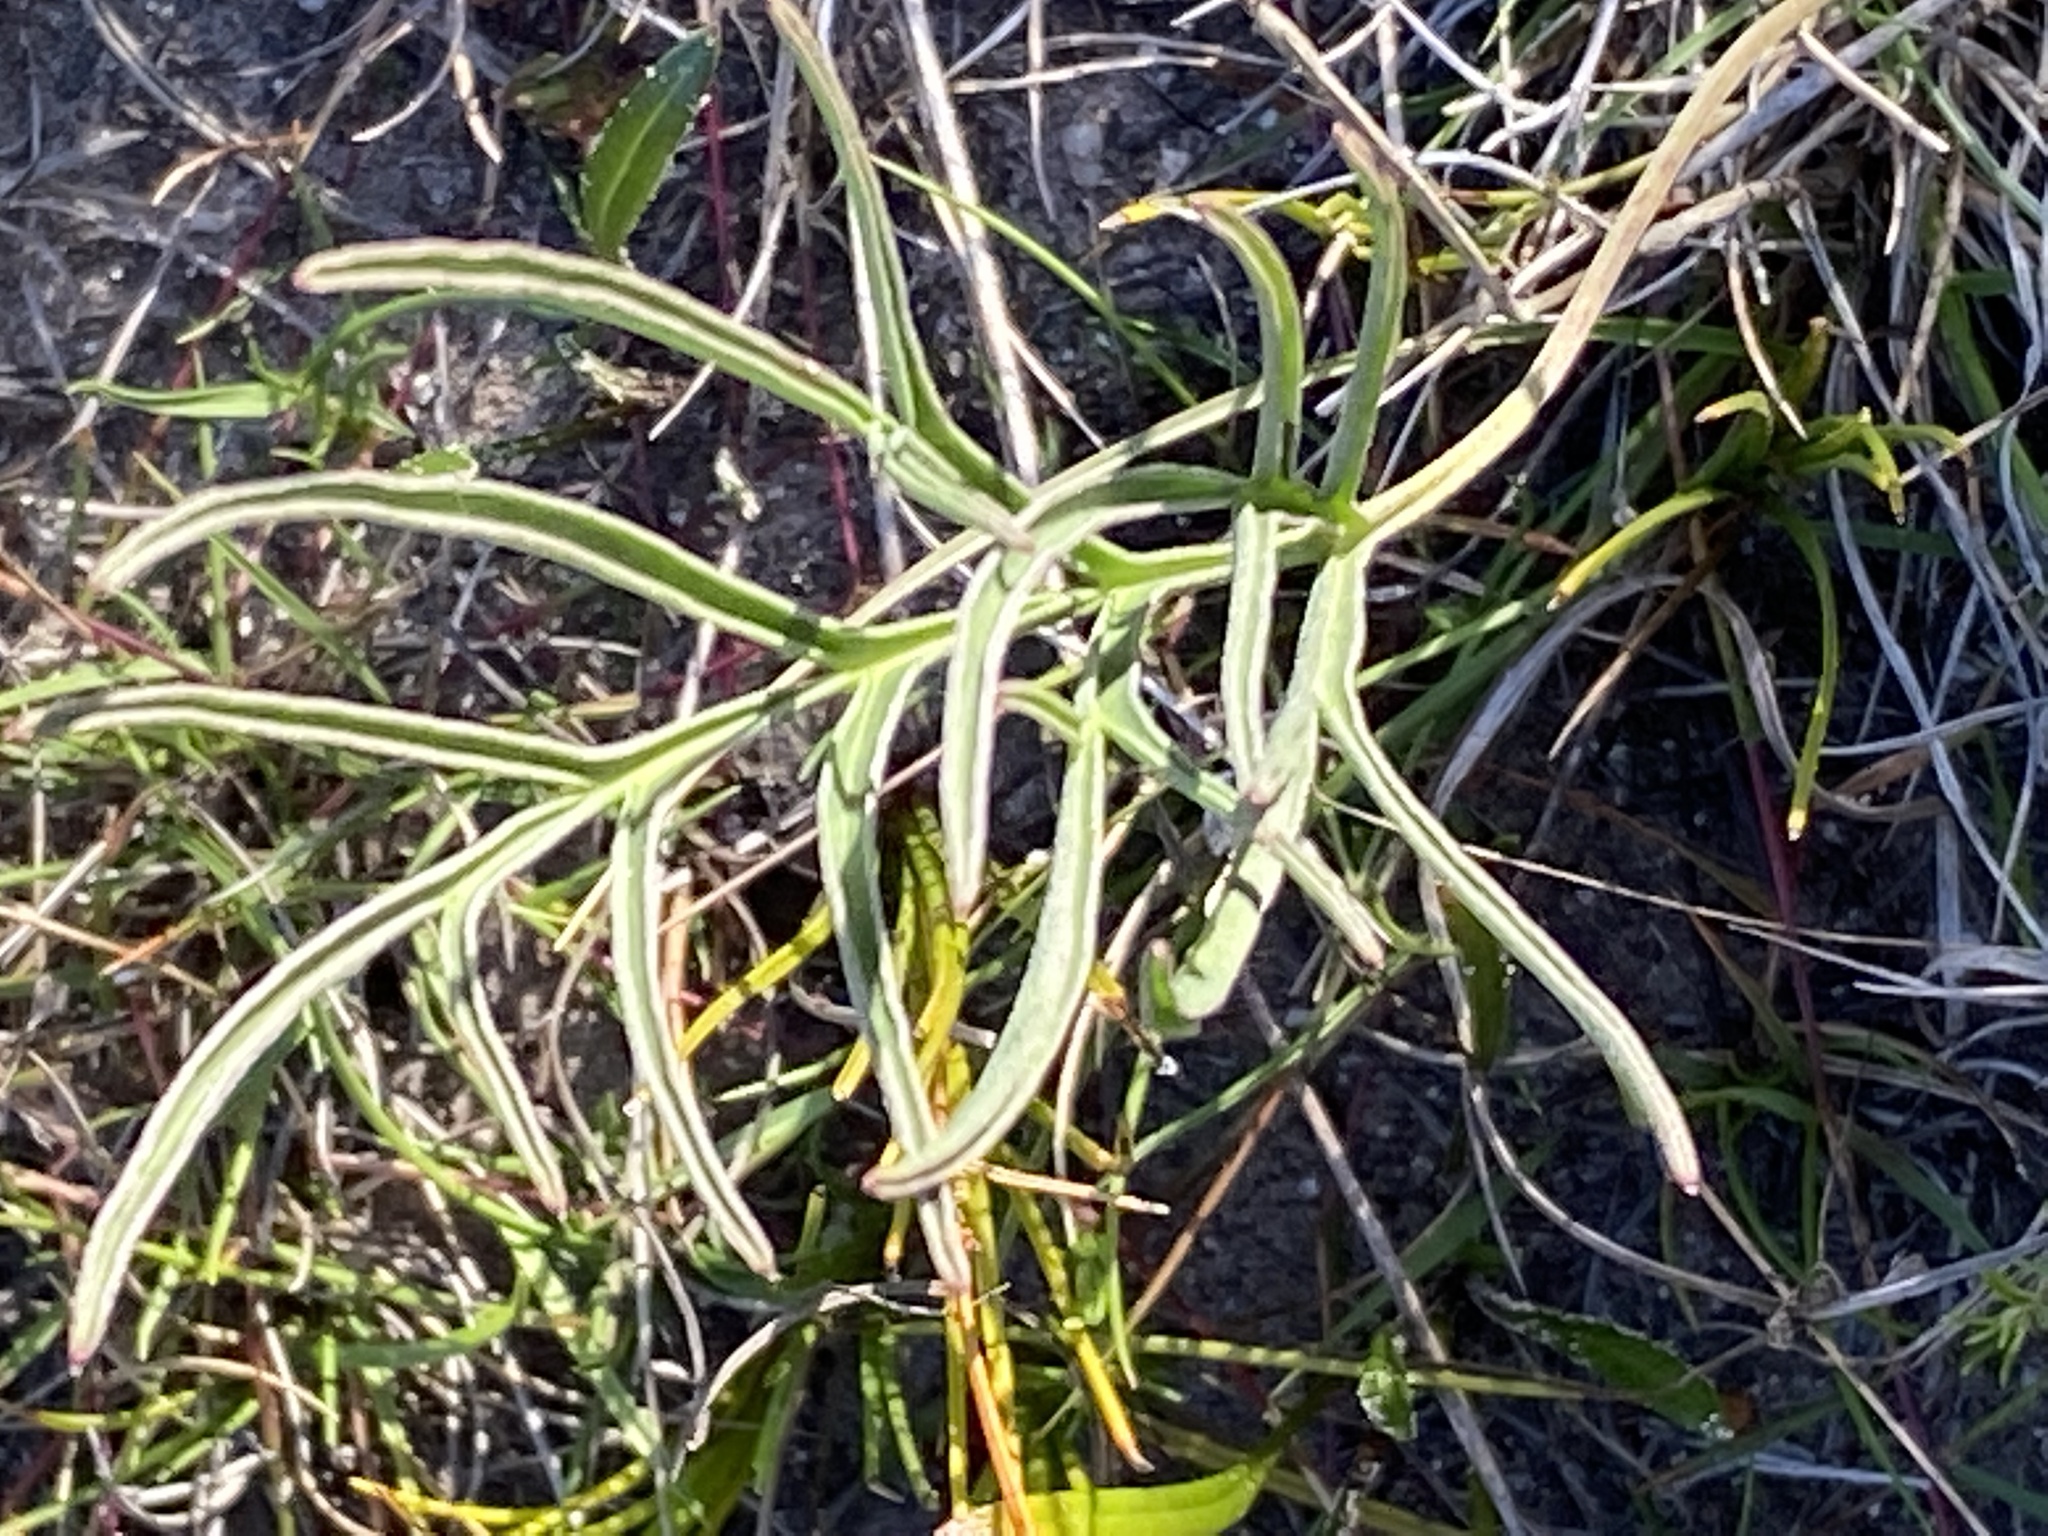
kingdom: Plantae
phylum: Tracheophyta
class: Magnoliopsida
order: Geraniales
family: Geraniaceae
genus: Pelargonium
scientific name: Pelargonium dipetalum
